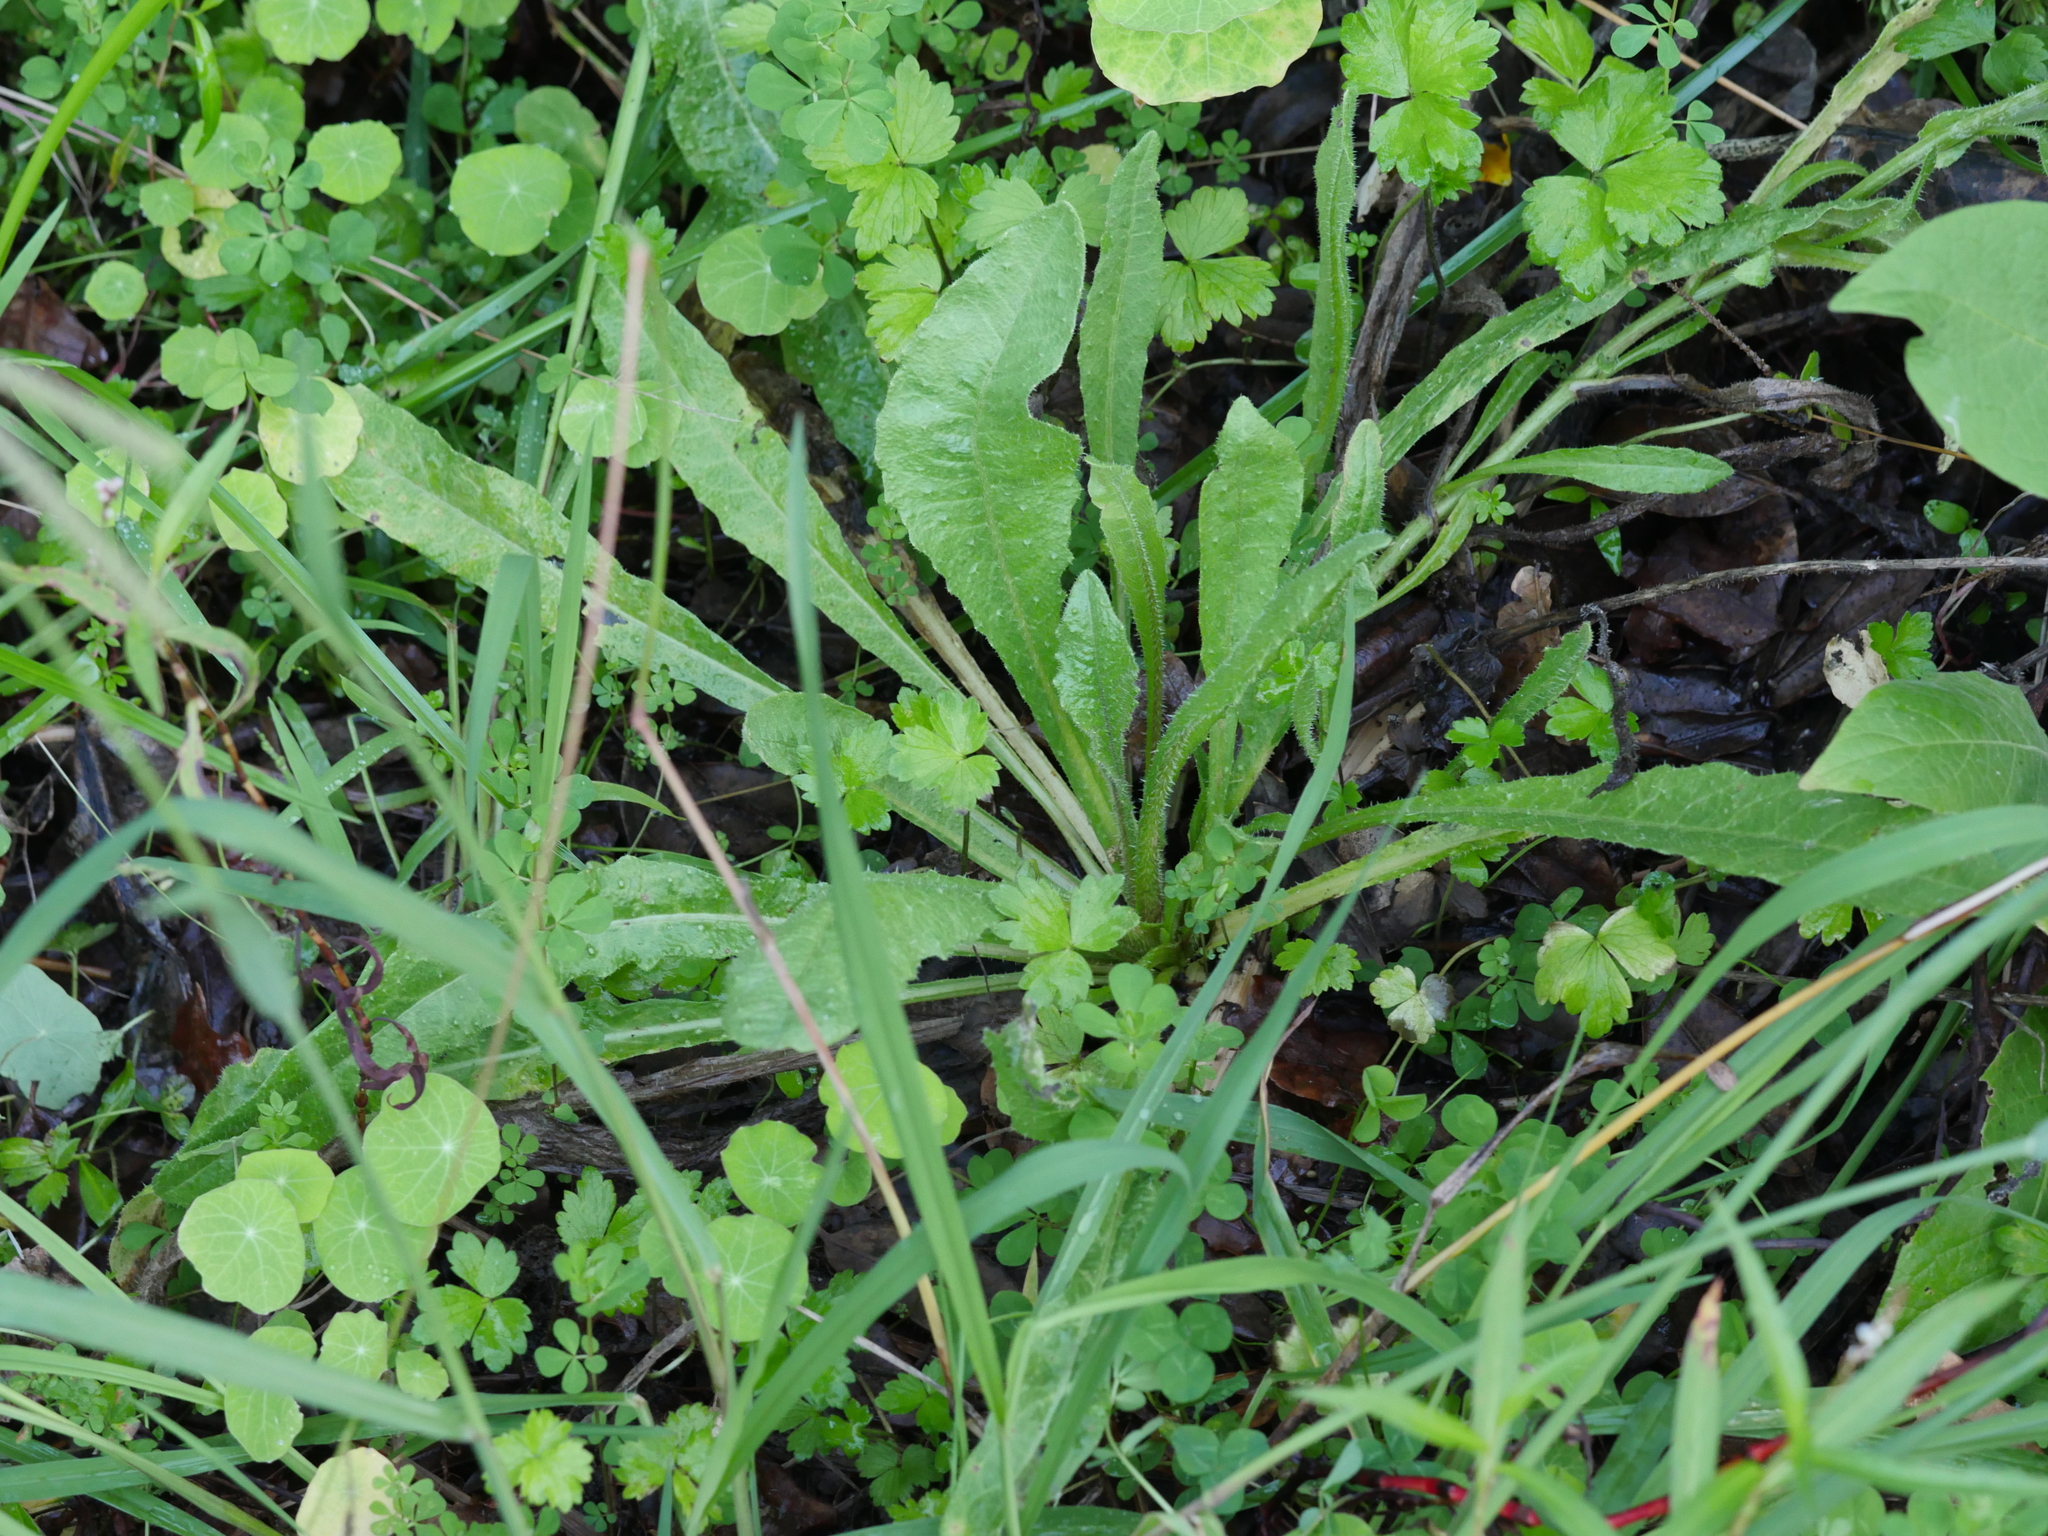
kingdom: Plantae
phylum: Tracheophyta
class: Magnoliopsida
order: Asterales
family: Asteraceae
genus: Helminthotheca
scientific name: Helminthotheca echioides
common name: Ox-tongue
